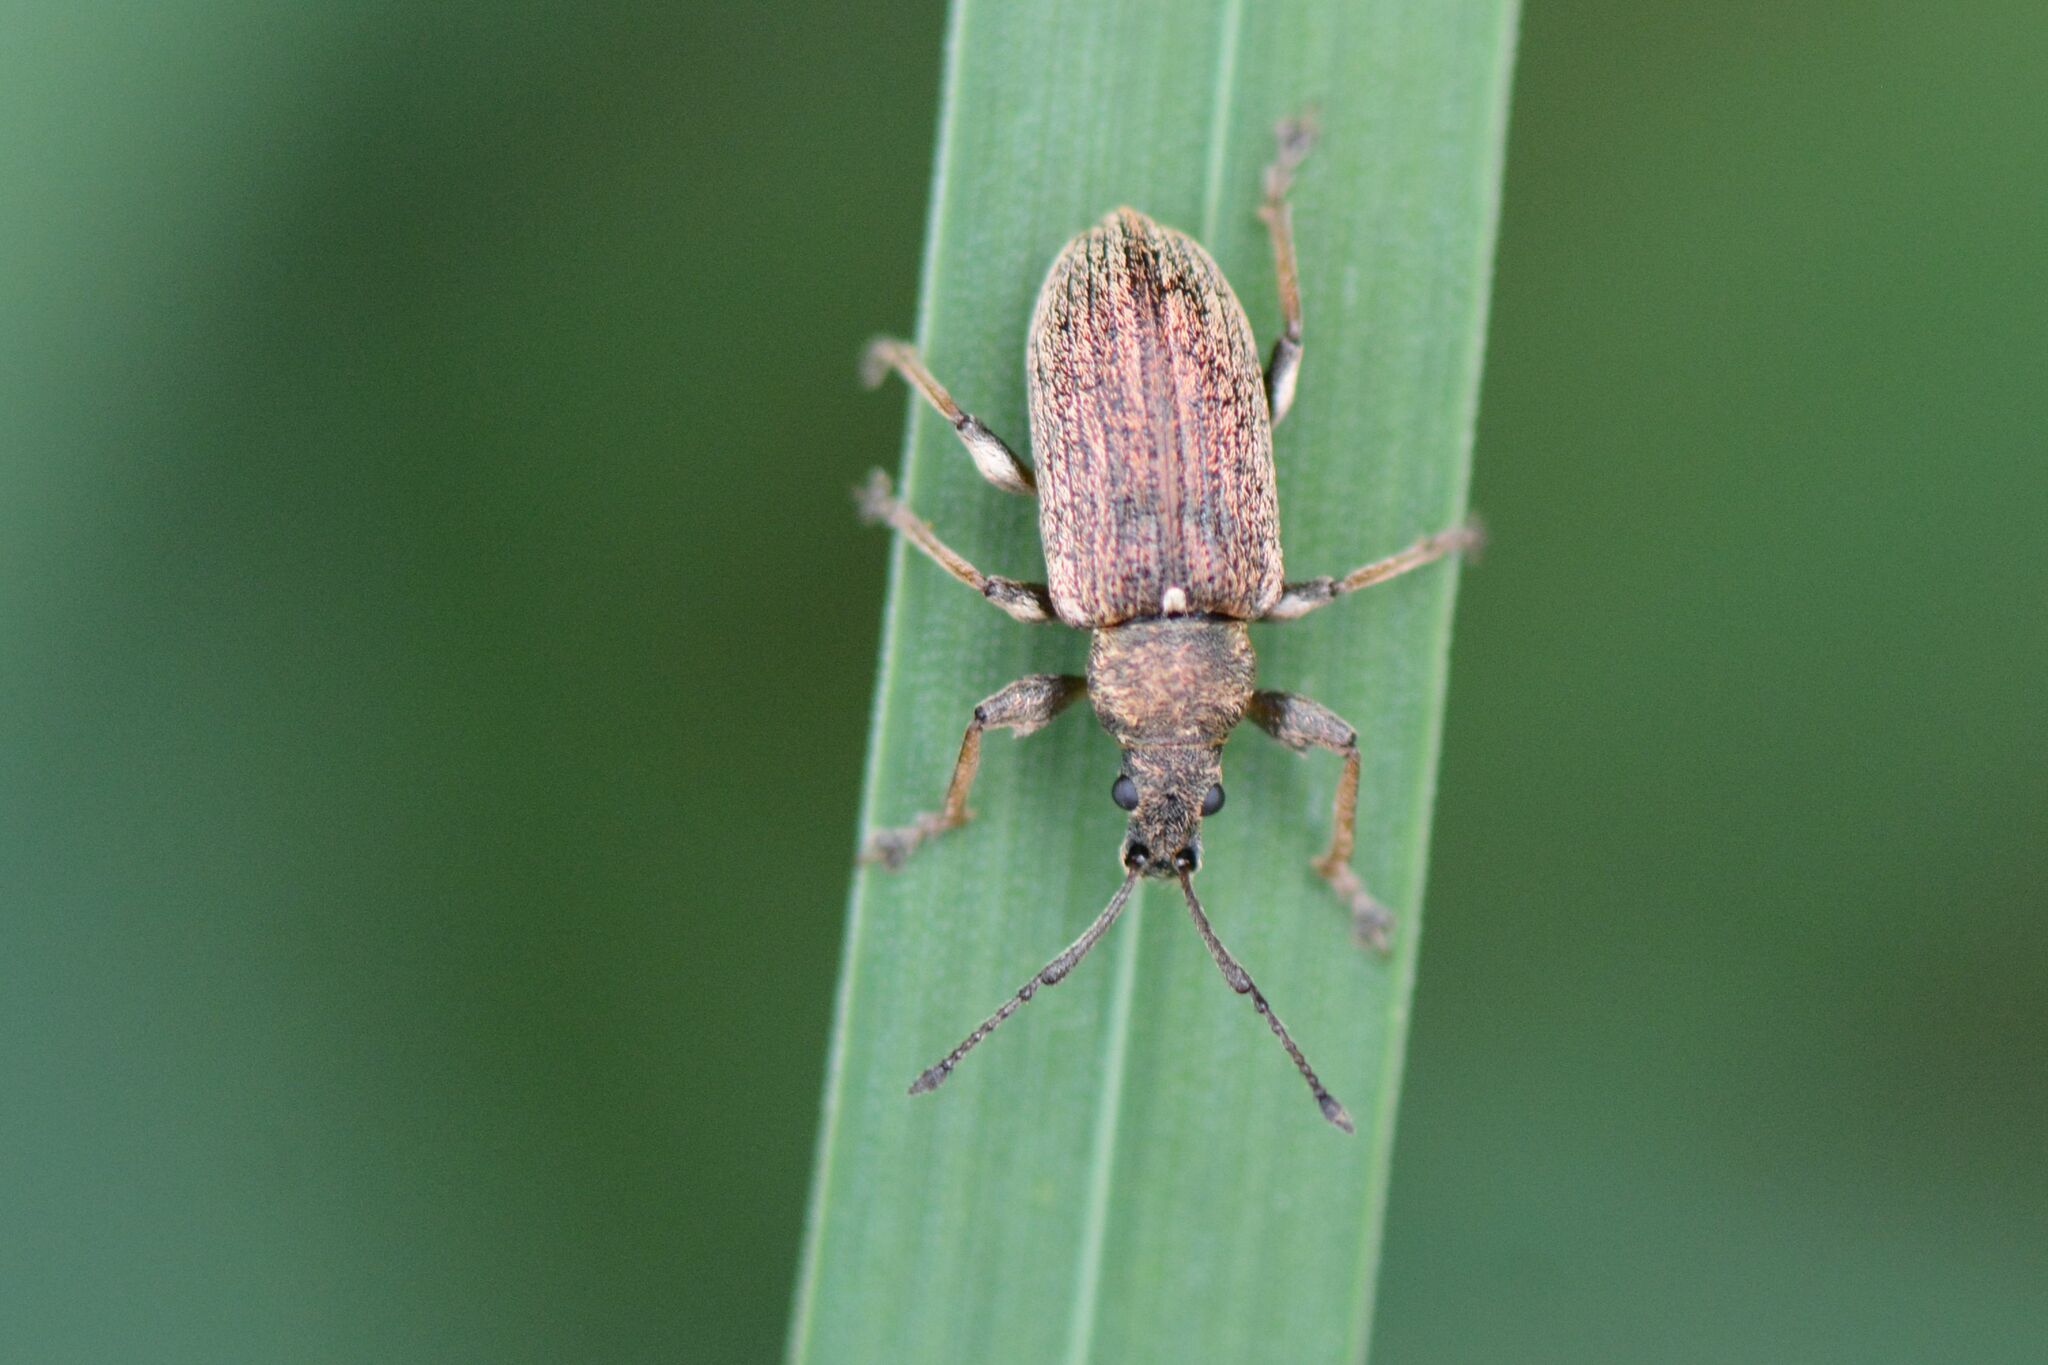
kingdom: Animalia
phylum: Arthropoda
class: Insecta
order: Coleoptera
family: Curculionidae
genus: Phyllobius
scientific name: Phyllobius pyri
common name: Common leaf weevil
